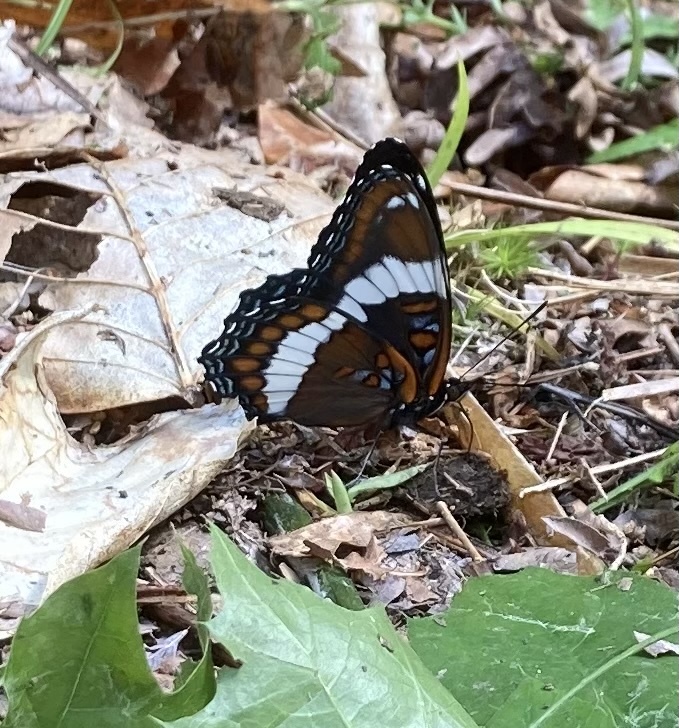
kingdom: Animalia
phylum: Arthropoda
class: Insecta
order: Lepidoptera
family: Nymphalidae
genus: Limenitis
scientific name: Limenitis arthemis
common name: Red-spotted admiral
